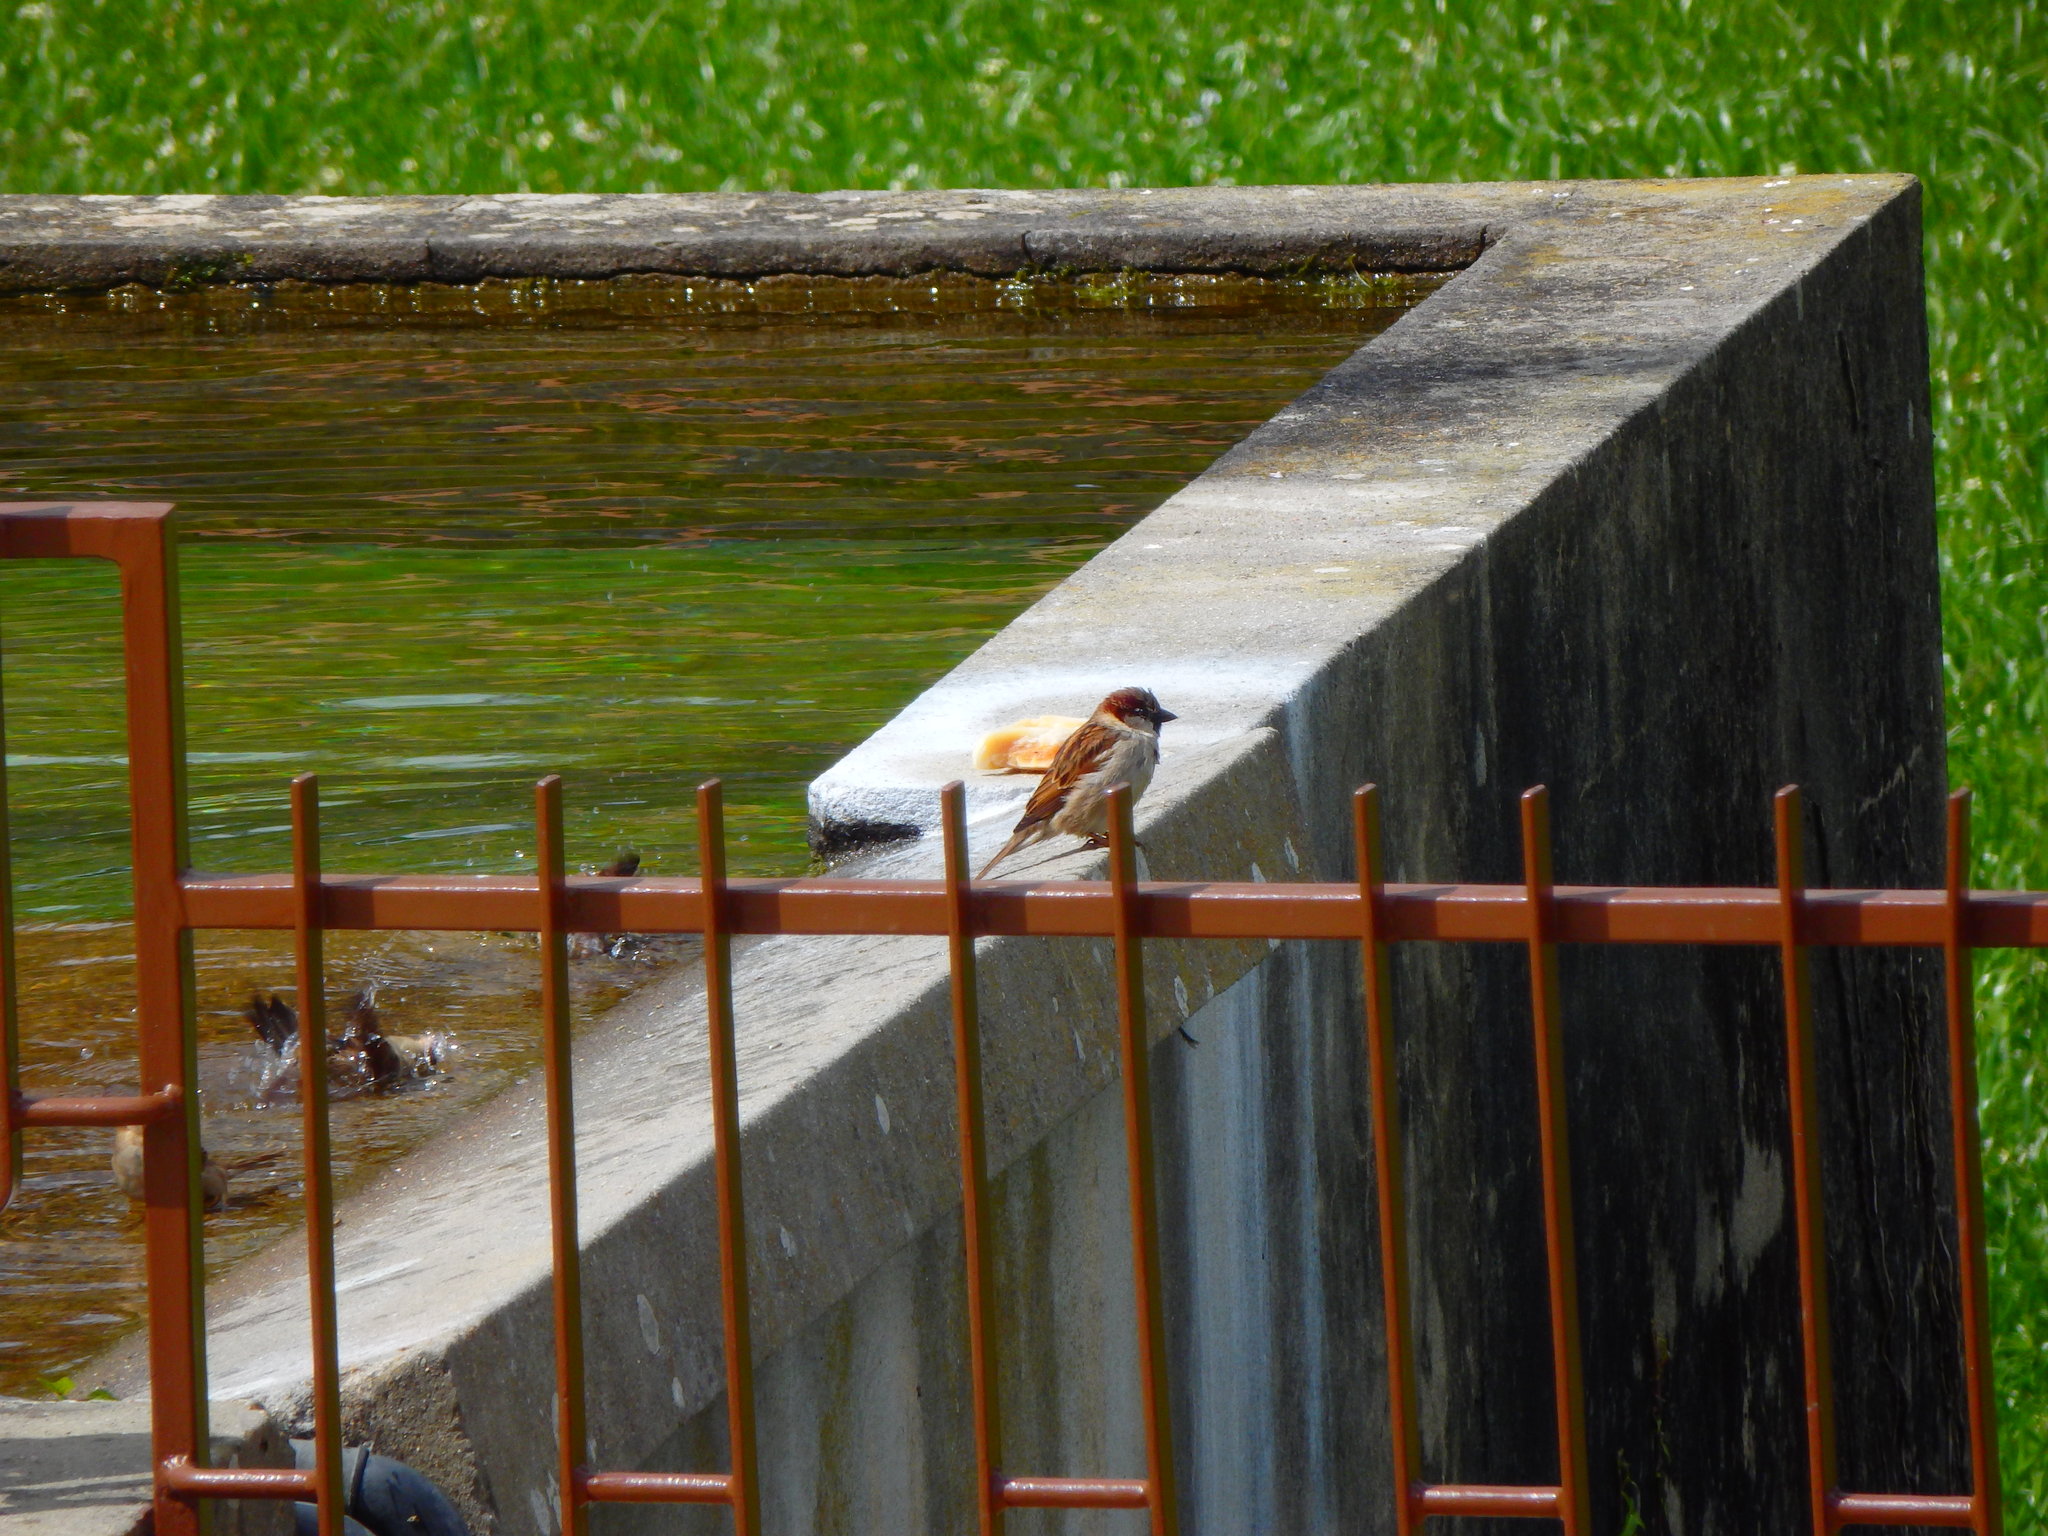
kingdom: Animalia
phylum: Chordata
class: Aves
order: Passeriformes
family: Passeridae
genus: Passer
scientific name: Passer domesticus
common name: House sparrow
